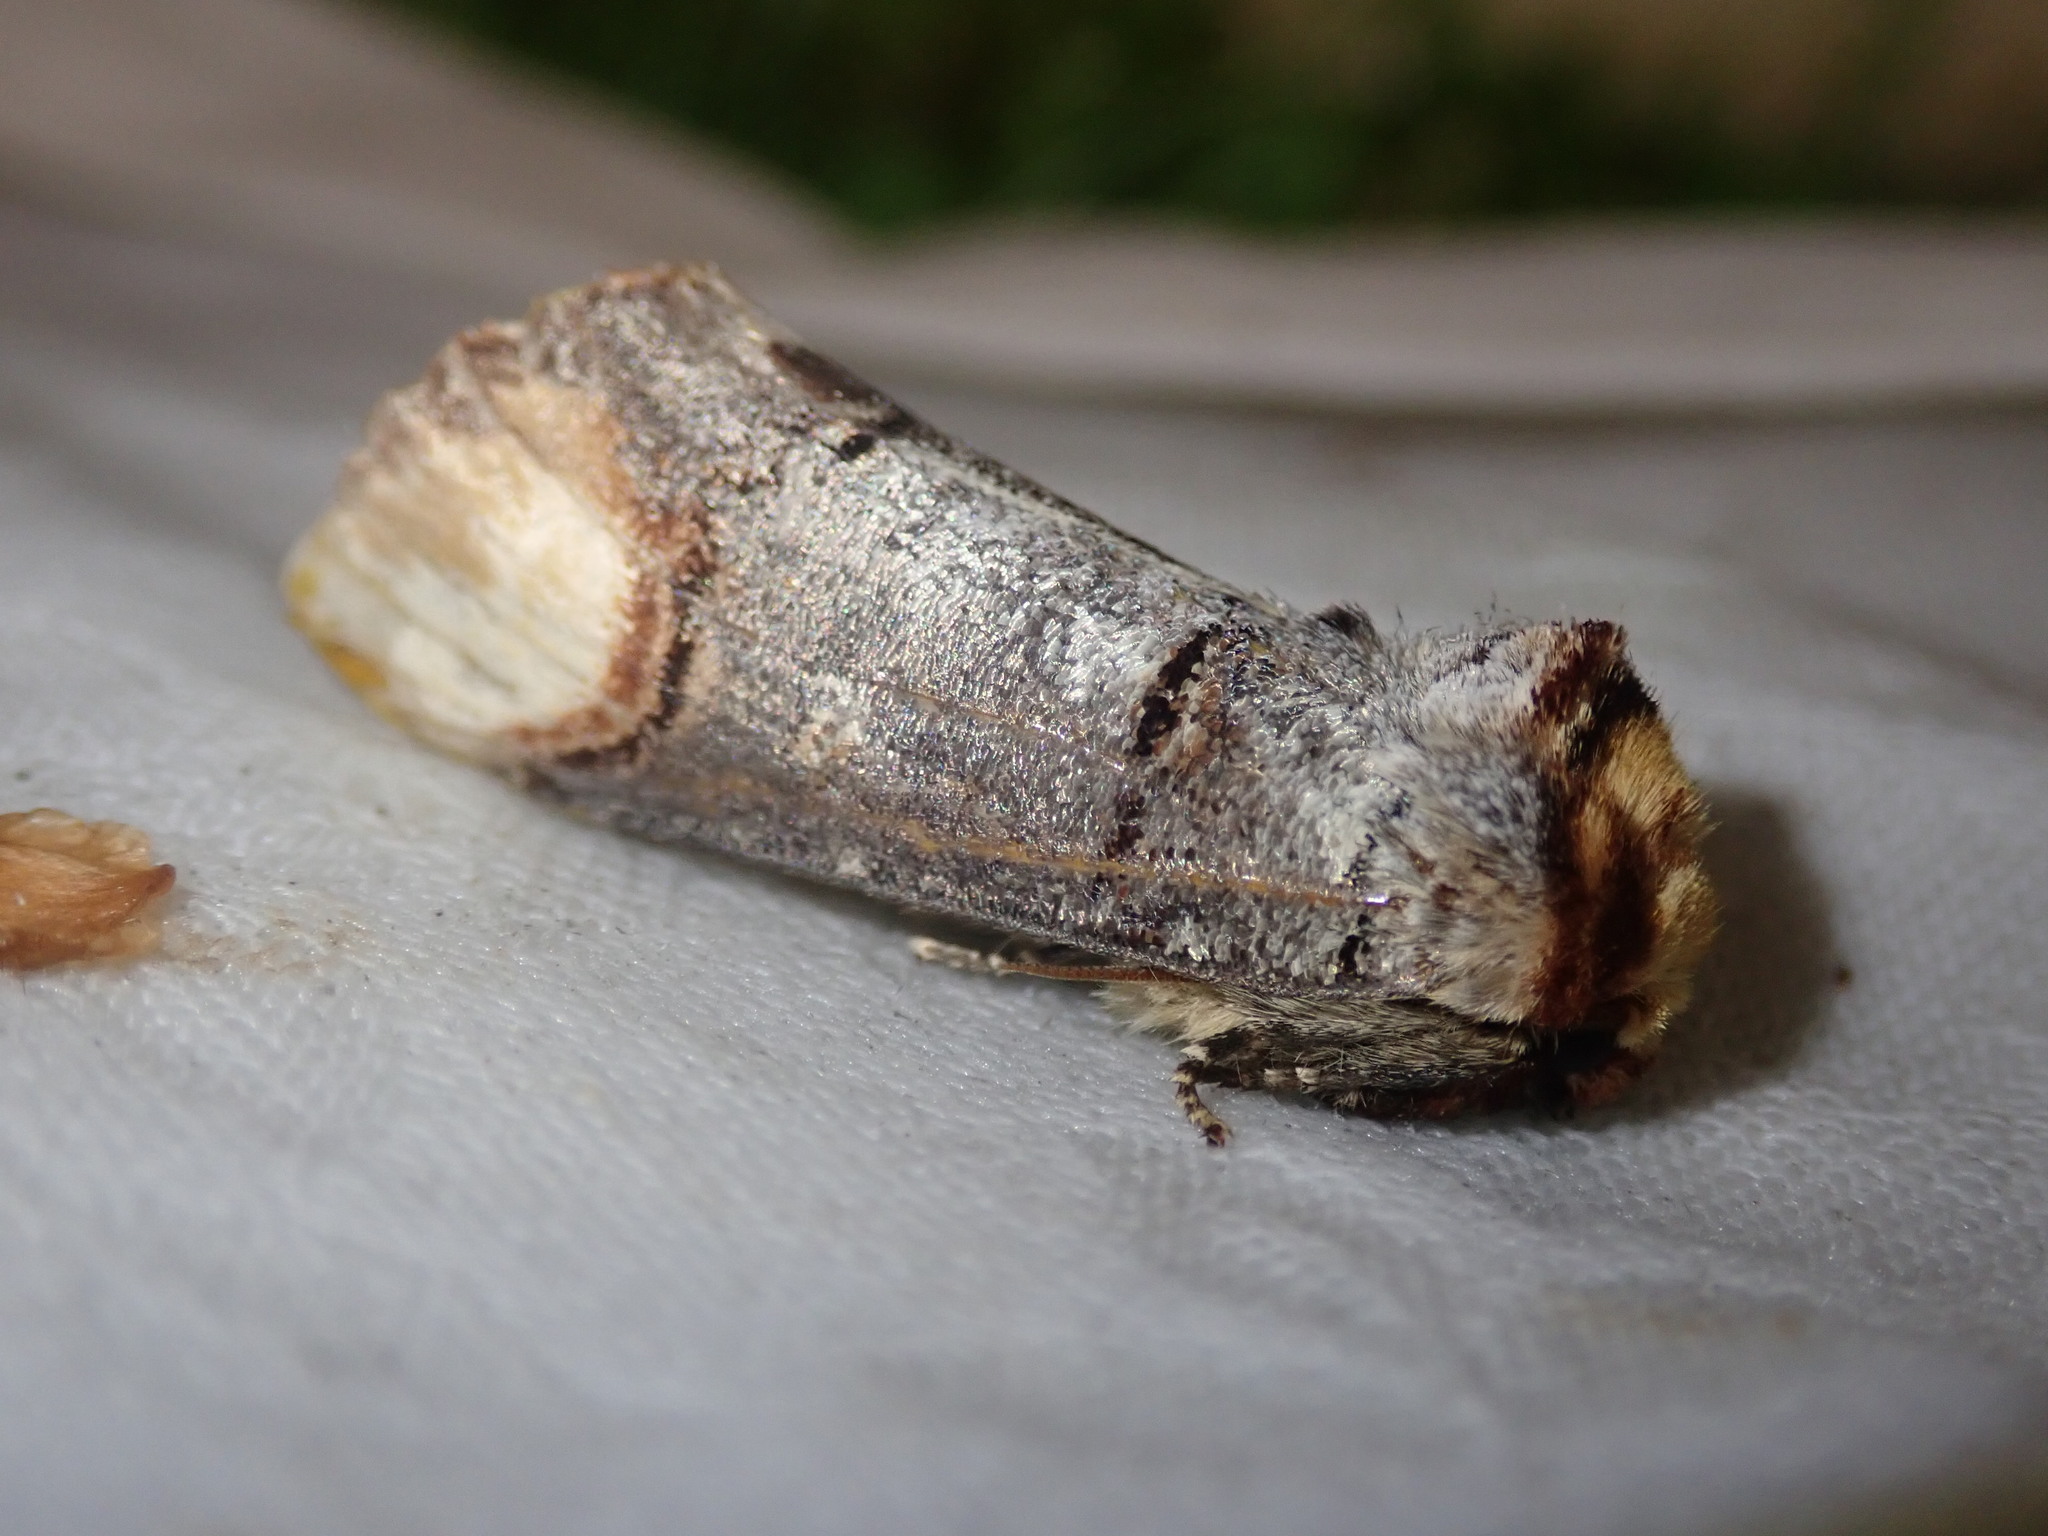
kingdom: Animalia
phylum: Arthropoda
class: Insecta
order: Lepidoptera
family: Notodontidae
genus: Phalera
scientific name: Phalera bucephala
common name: Buff-tip
